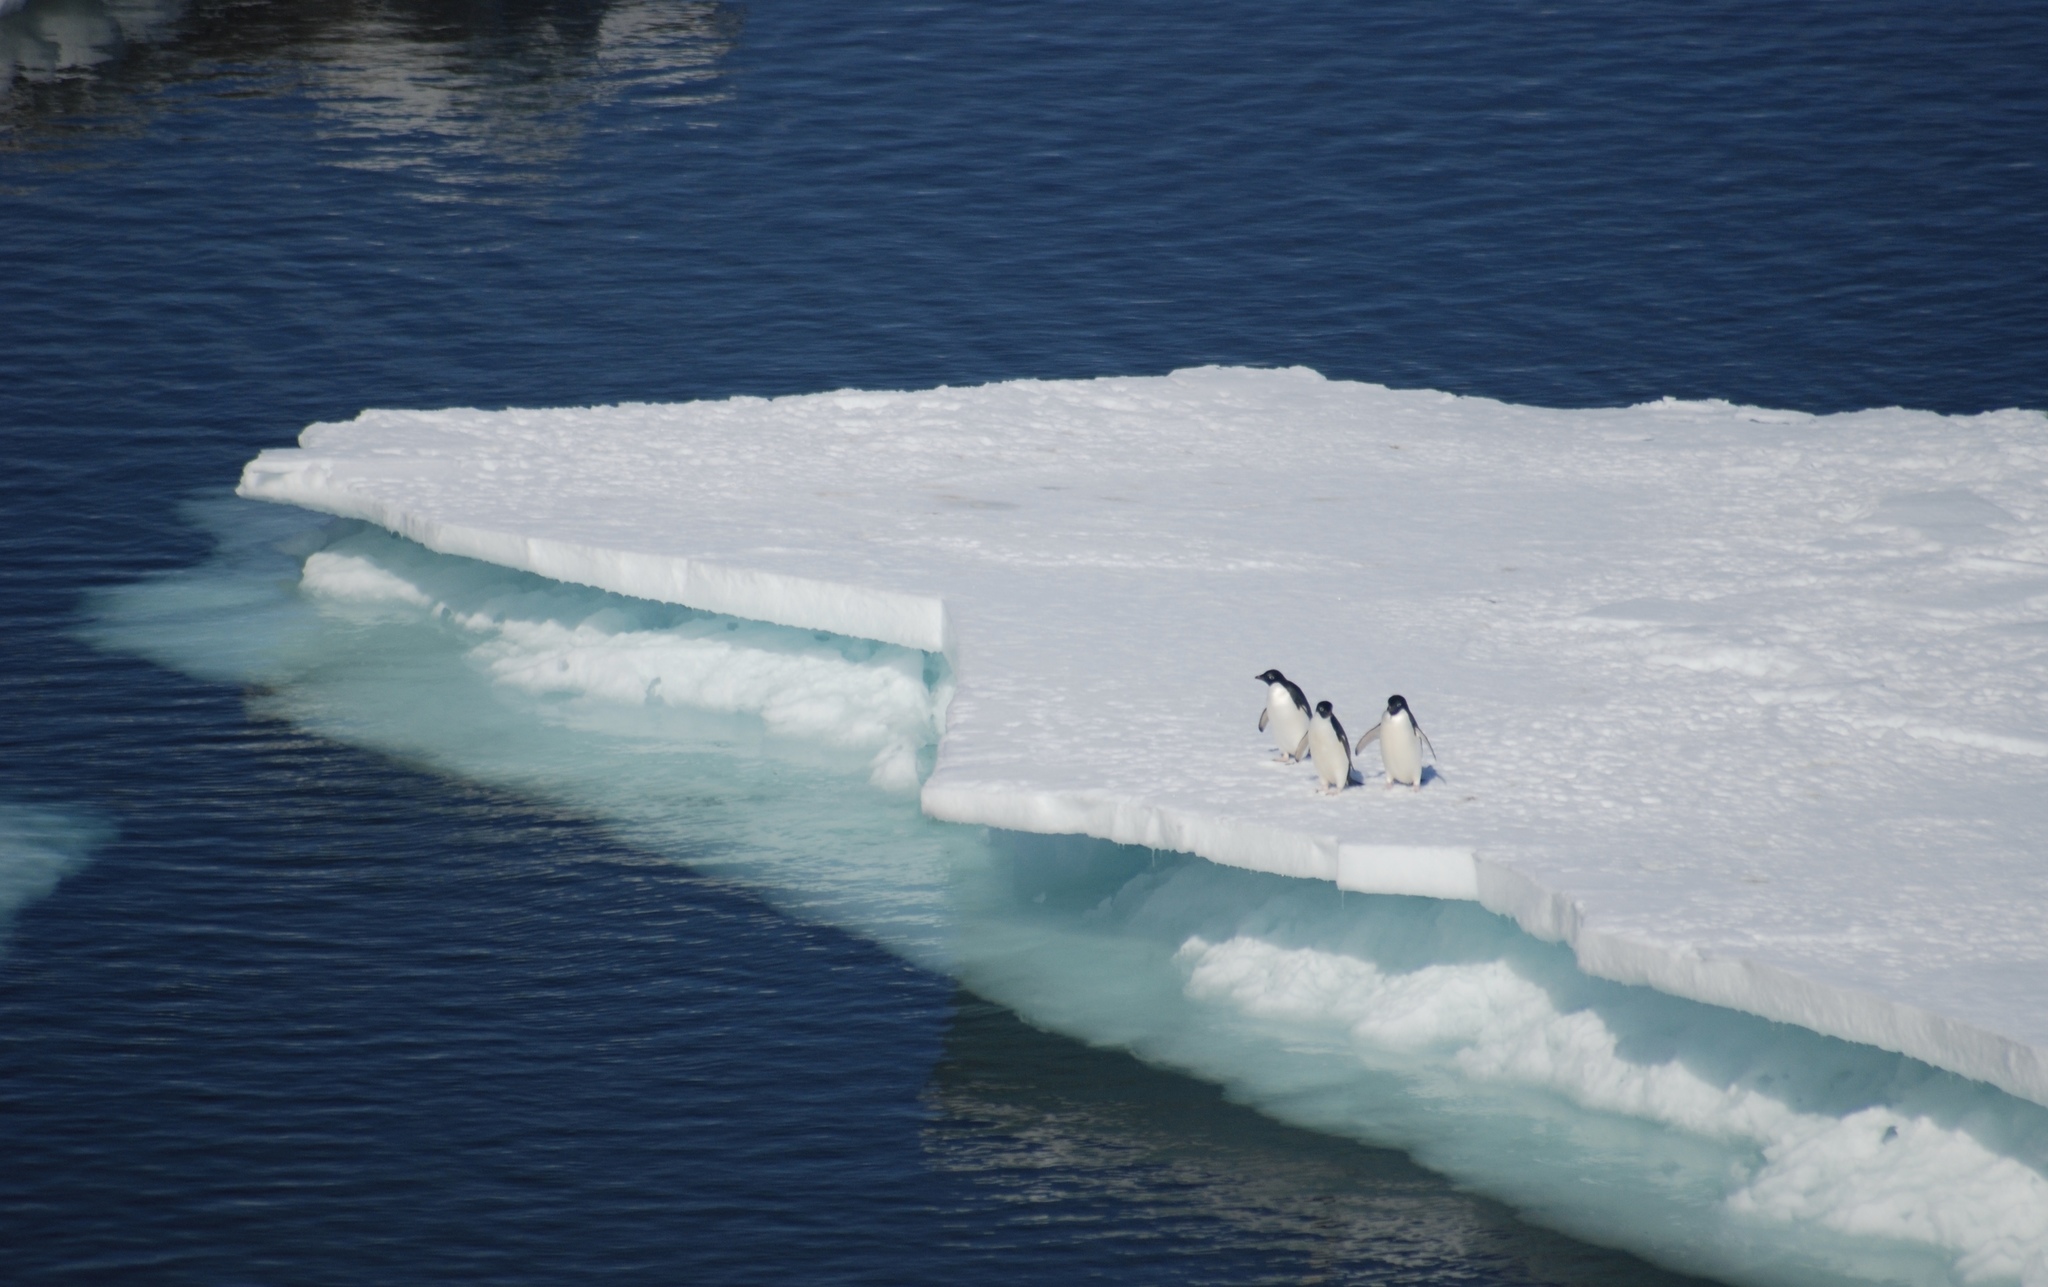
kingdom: Animalia
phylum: Chordata
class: Aves
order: Sphenisciformes
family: Spheniscidae
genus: Pygoscelis
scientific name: Pygoscelis adeliae
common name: Adelie penguin
